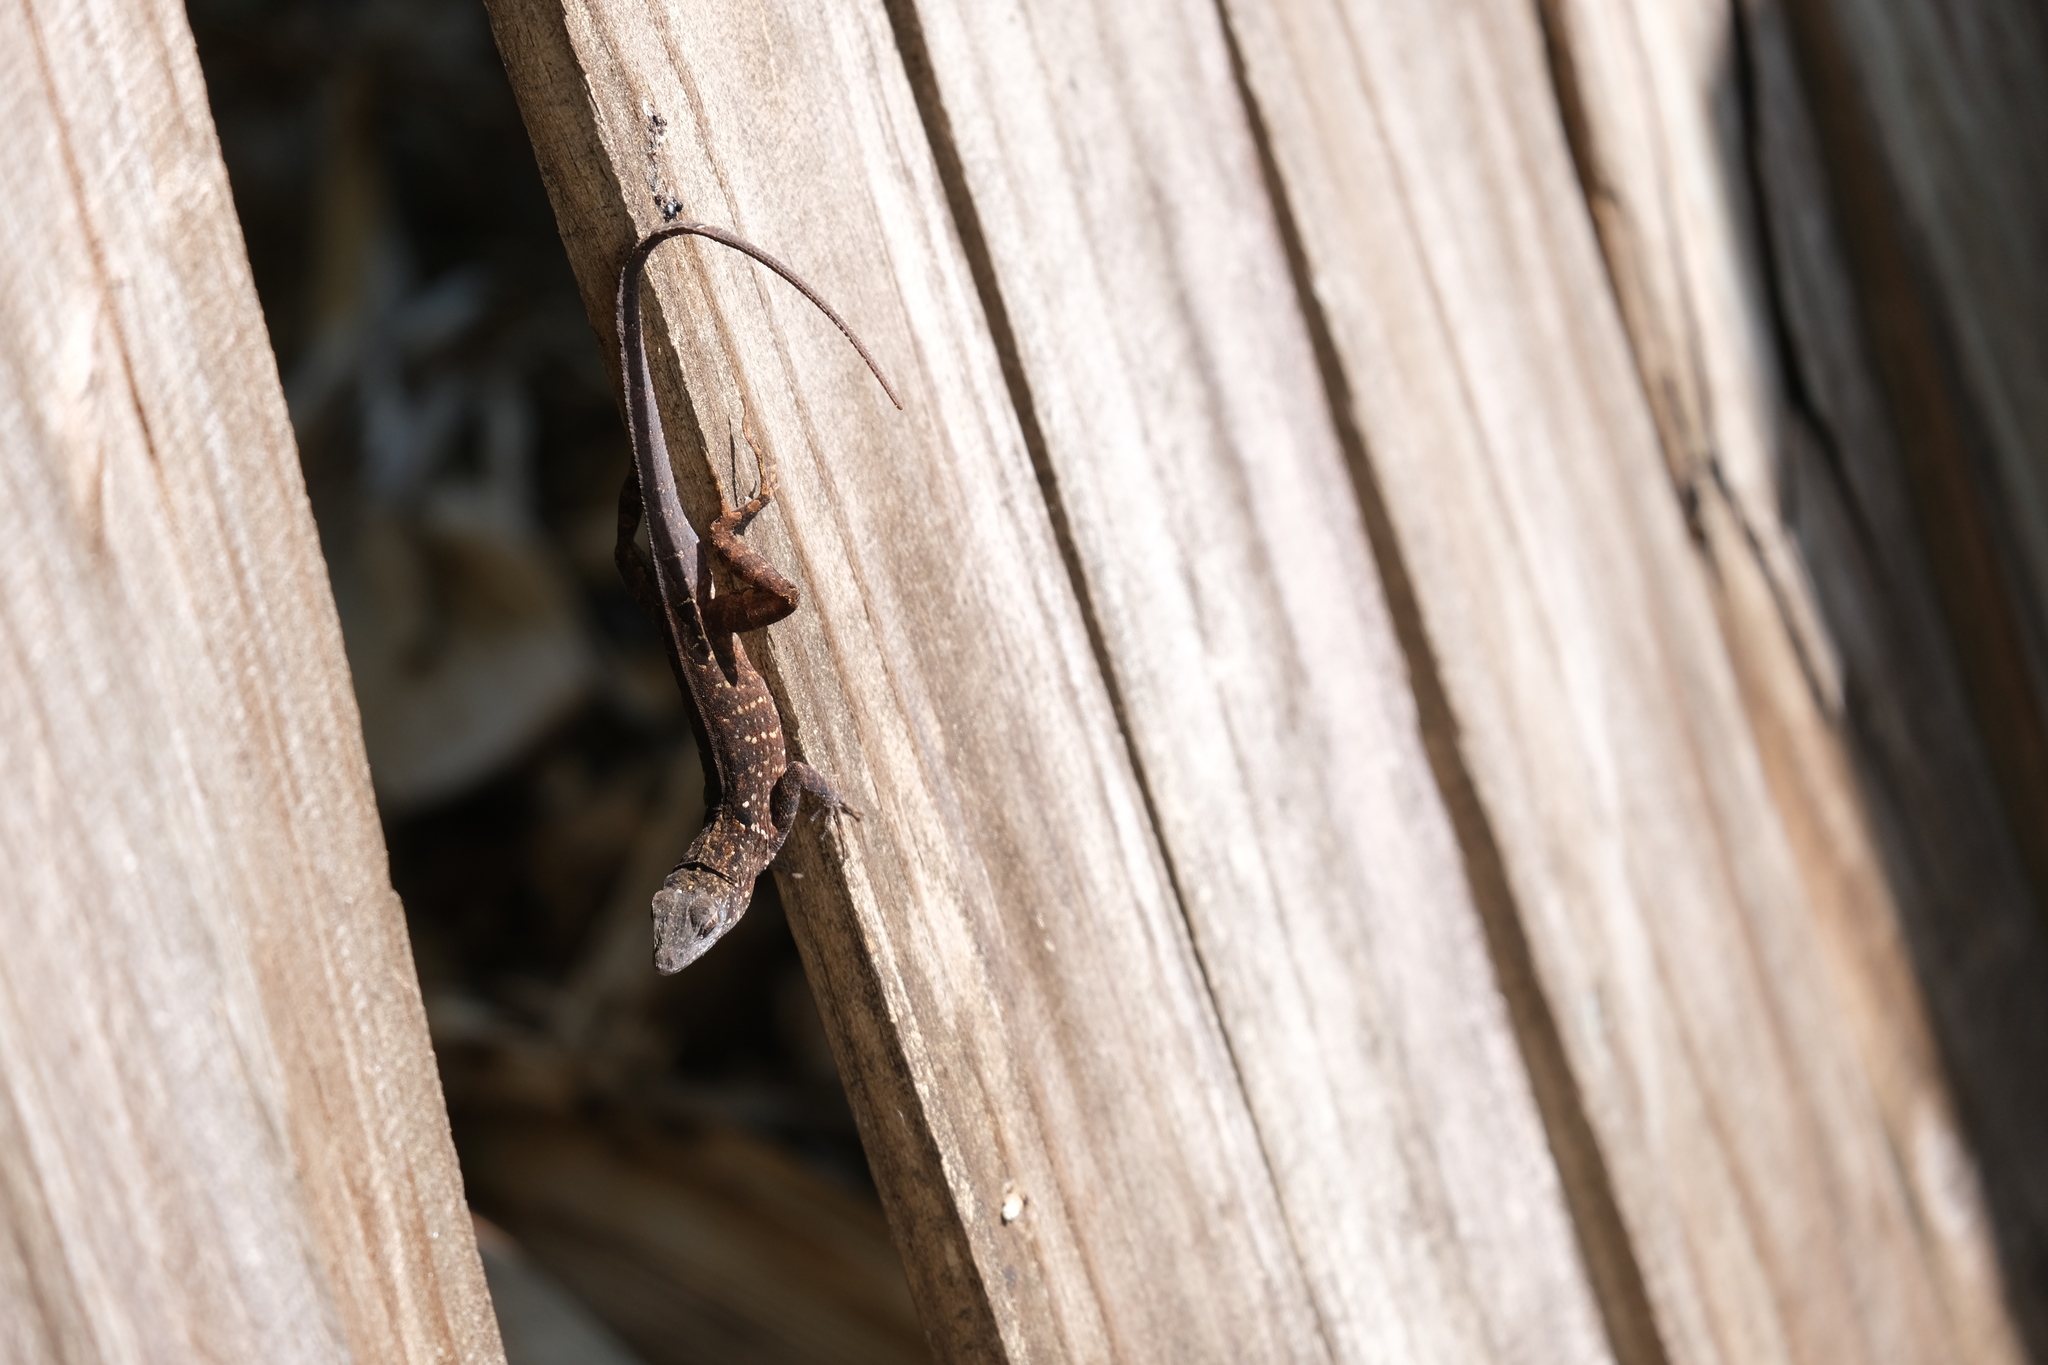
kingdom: Animalia
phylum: Chordata
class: Squamata
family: Dactyloidae
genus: Anolis
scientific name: Anolis sagrei
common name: Brown anole
